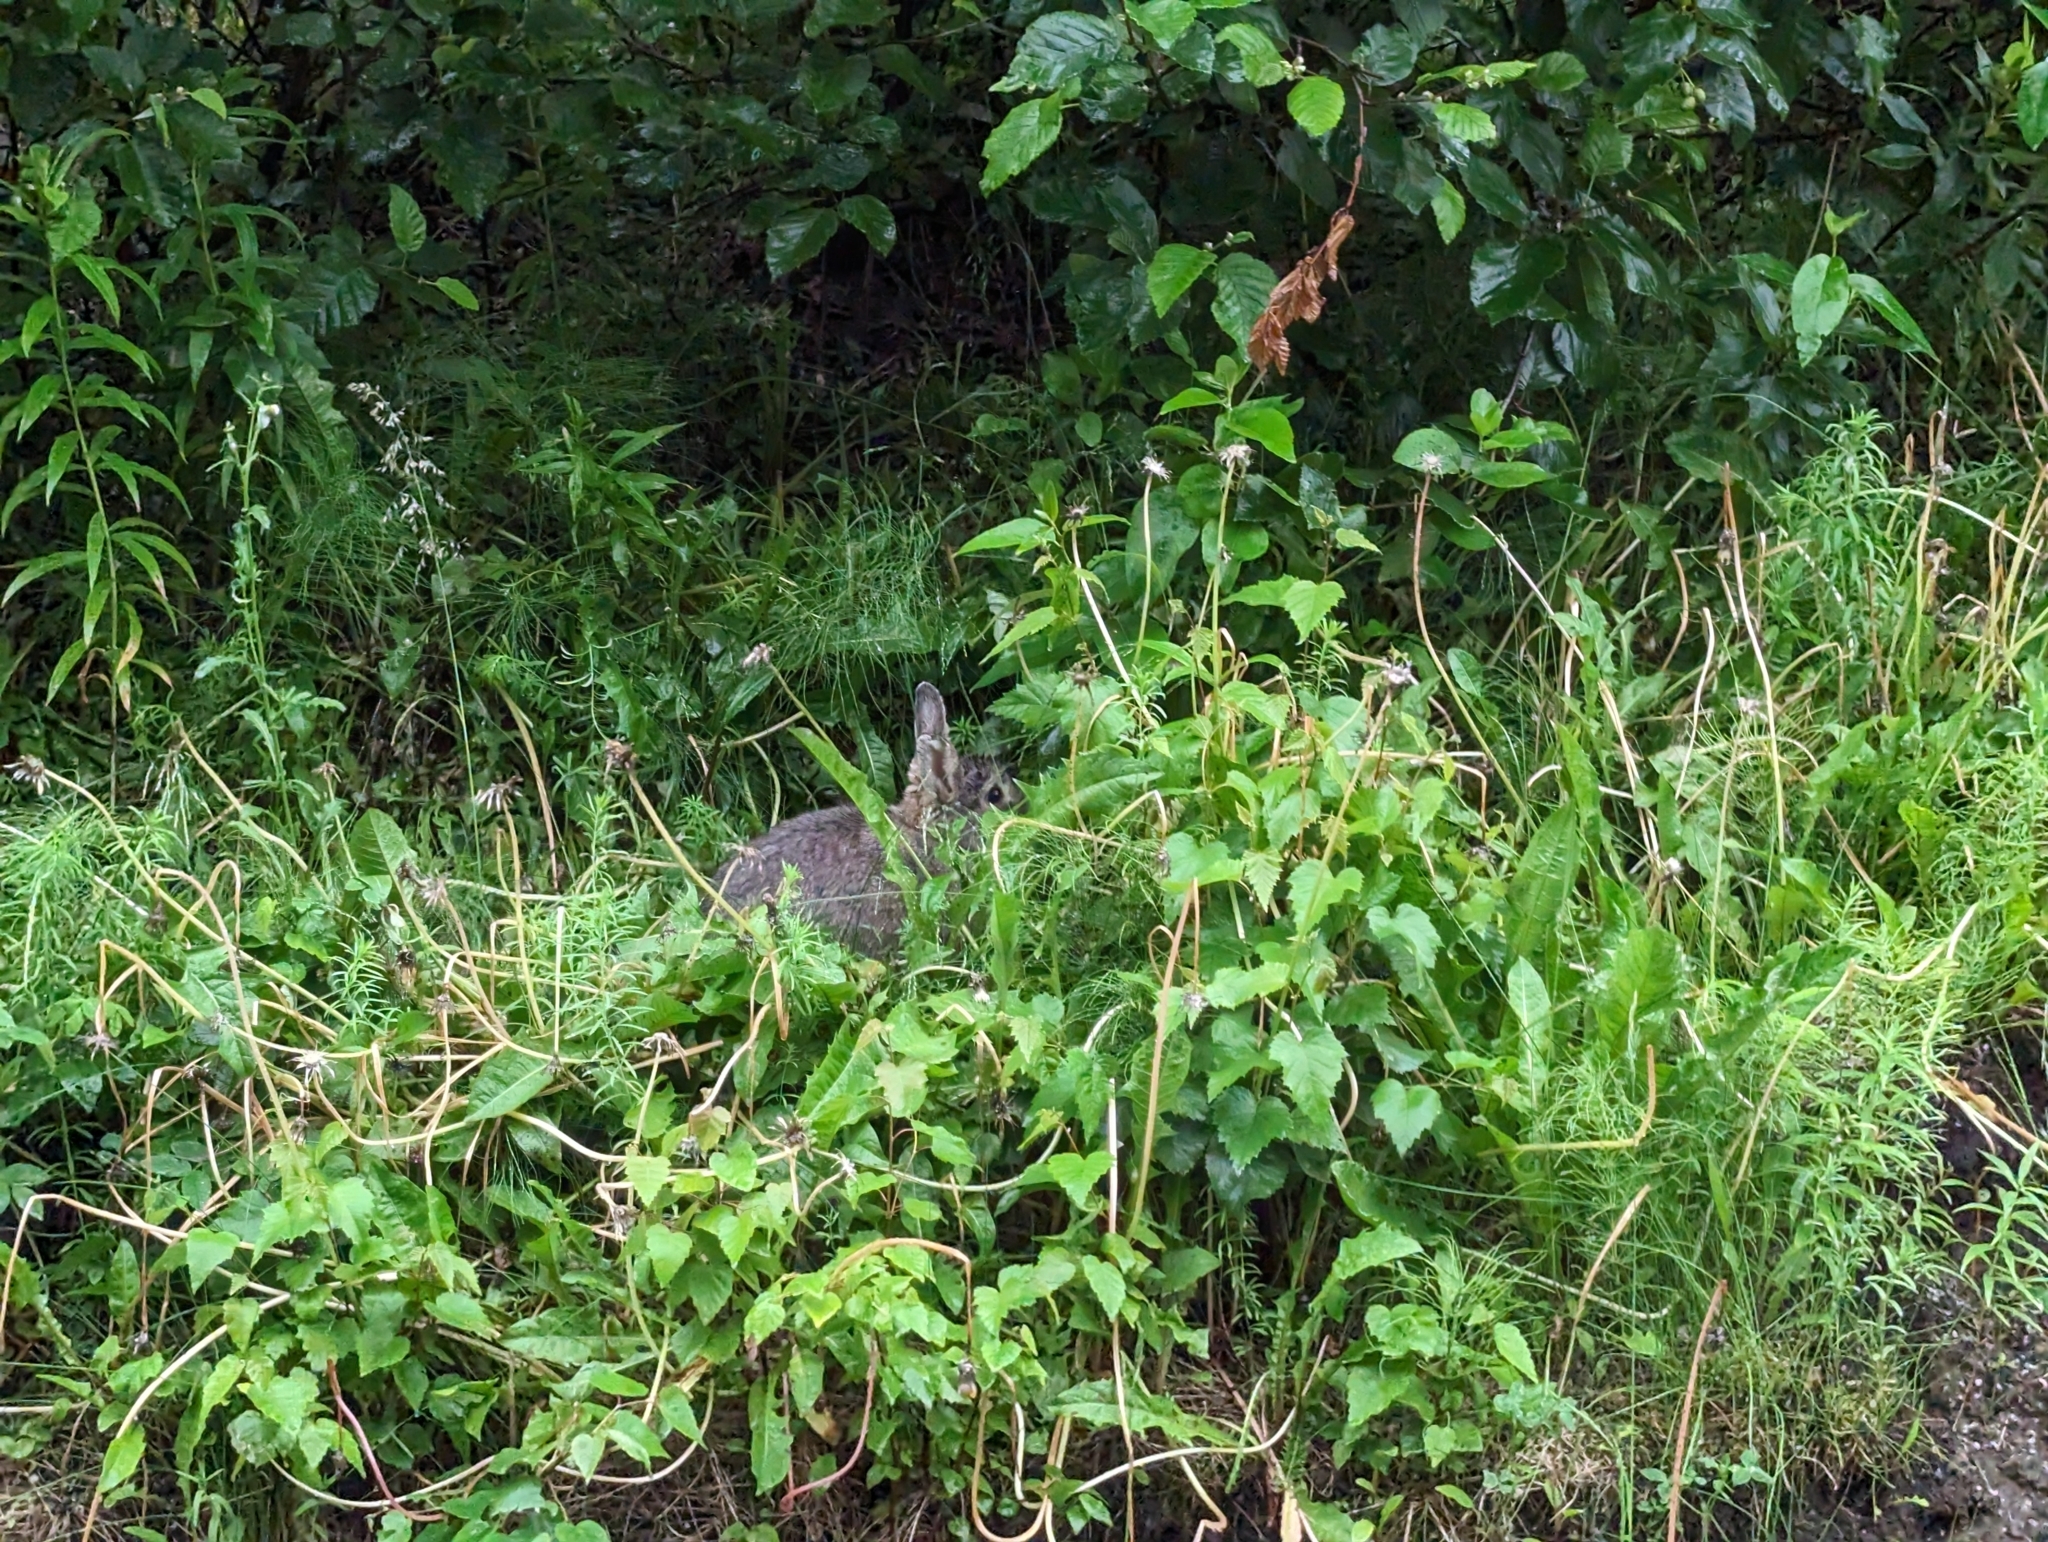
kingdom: Animalia
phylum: Chordata
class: Mammalia
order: Lagomorpha
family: Leporidae
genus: Lepus
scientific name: Lepus americanus
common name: Snowshoe hare
